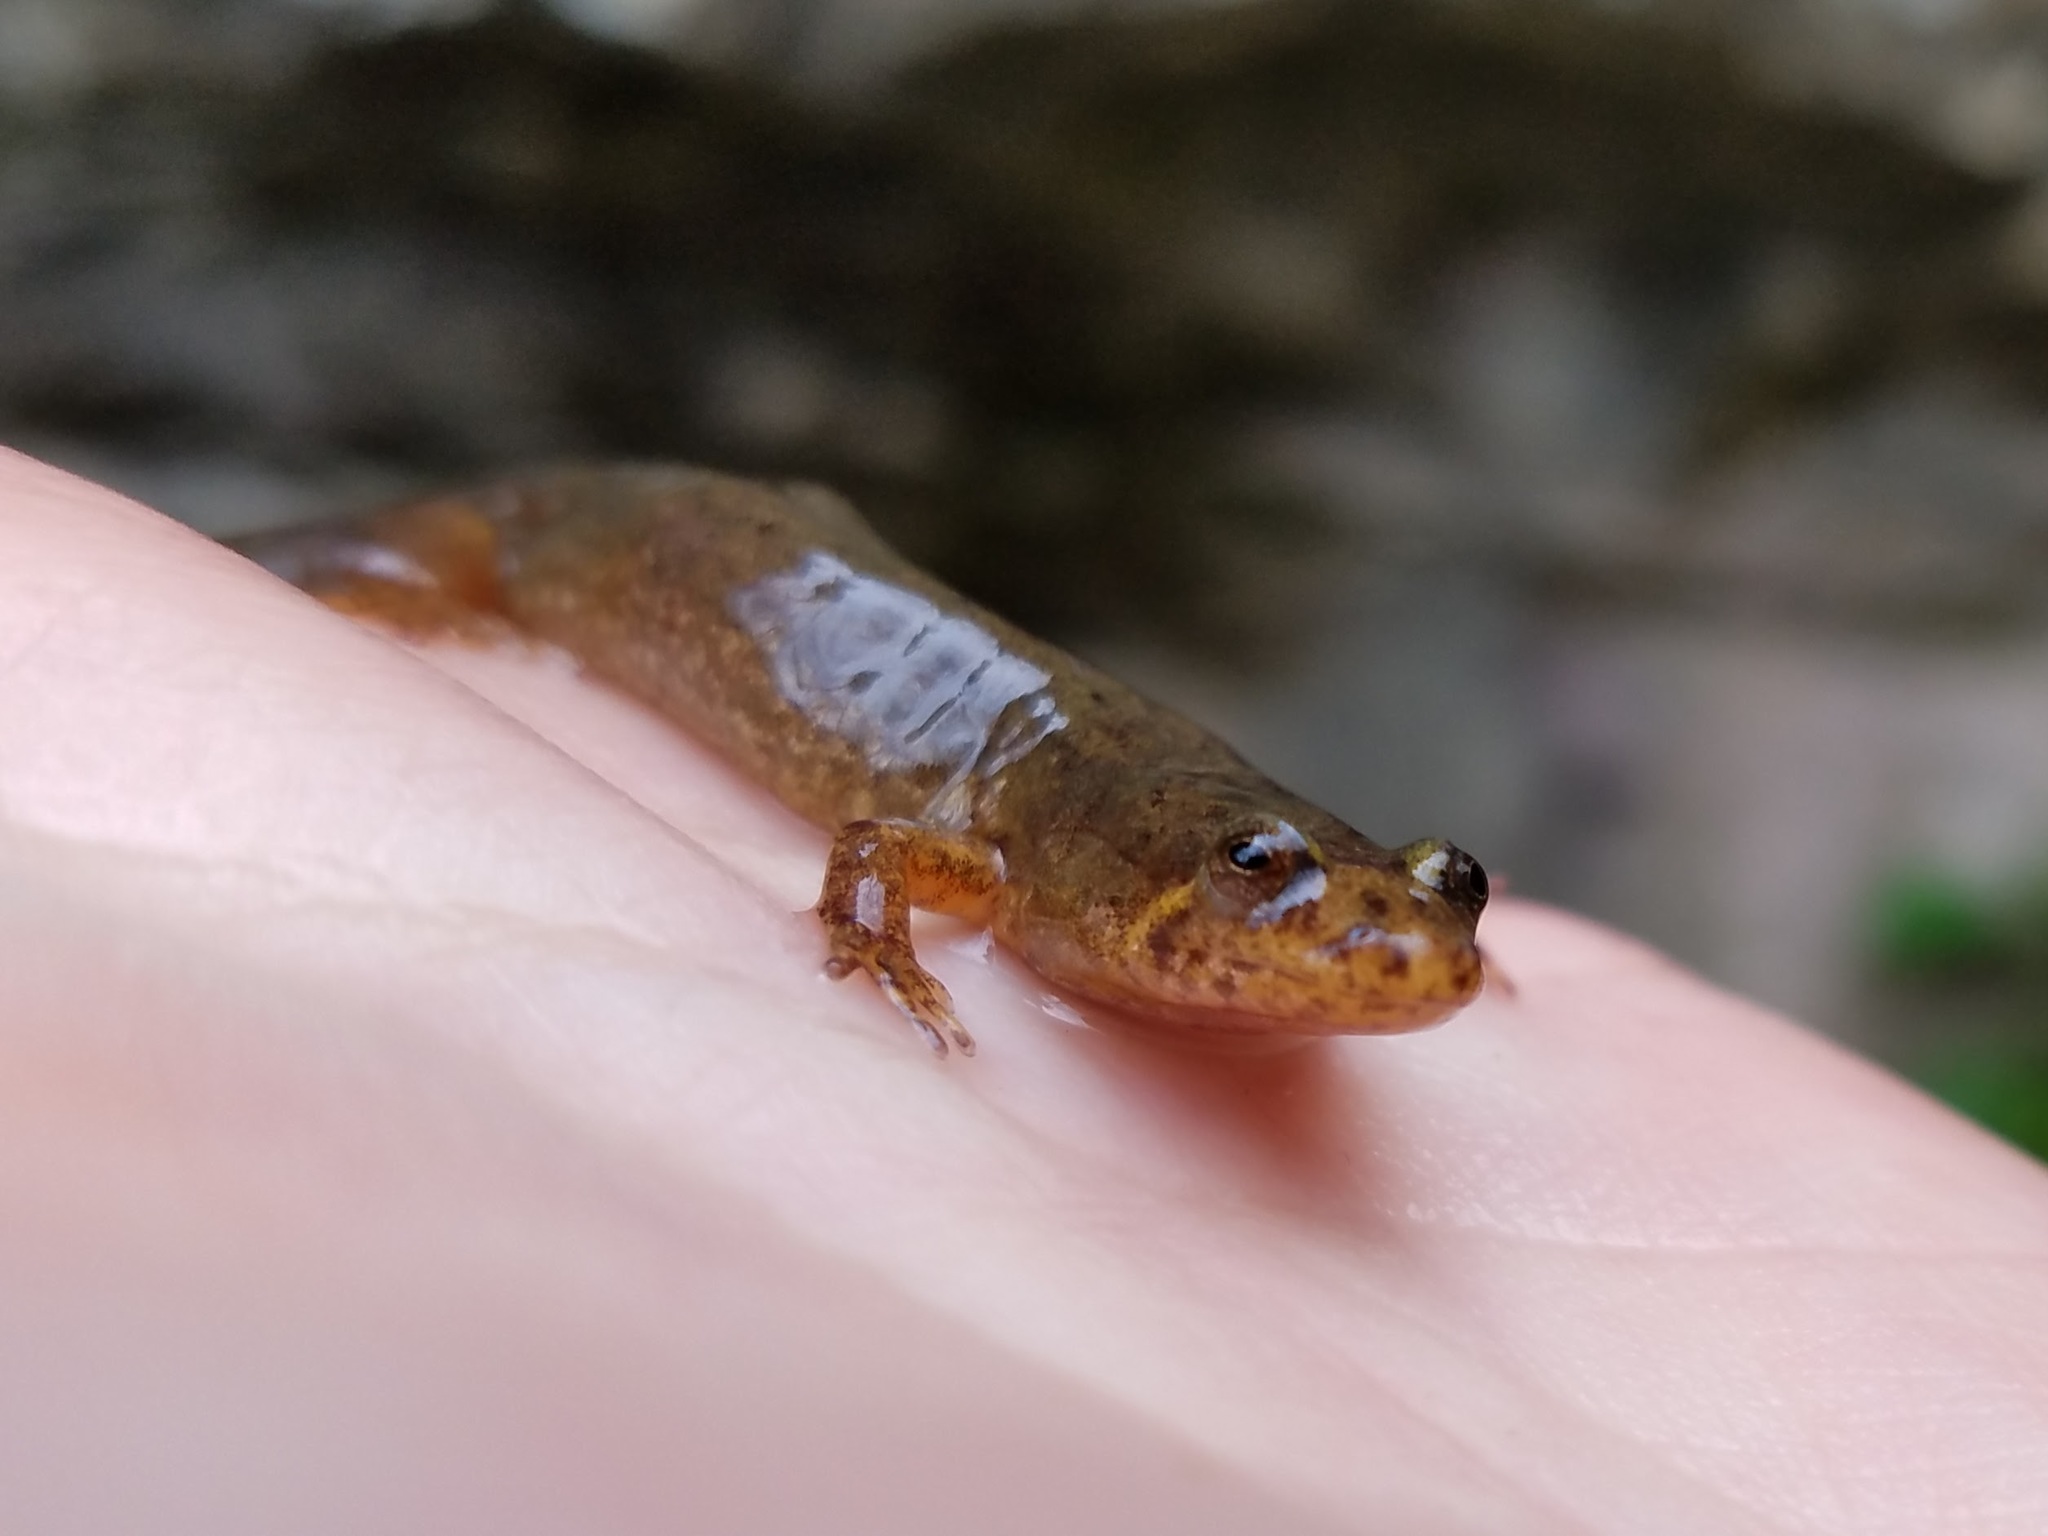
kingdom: Animalia
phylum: Chordata
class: Amphibia
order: Caudata
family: Plethodontidae
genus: Desmognathus
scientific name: Desmognathus conanti
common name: Spotted dusky salamander
